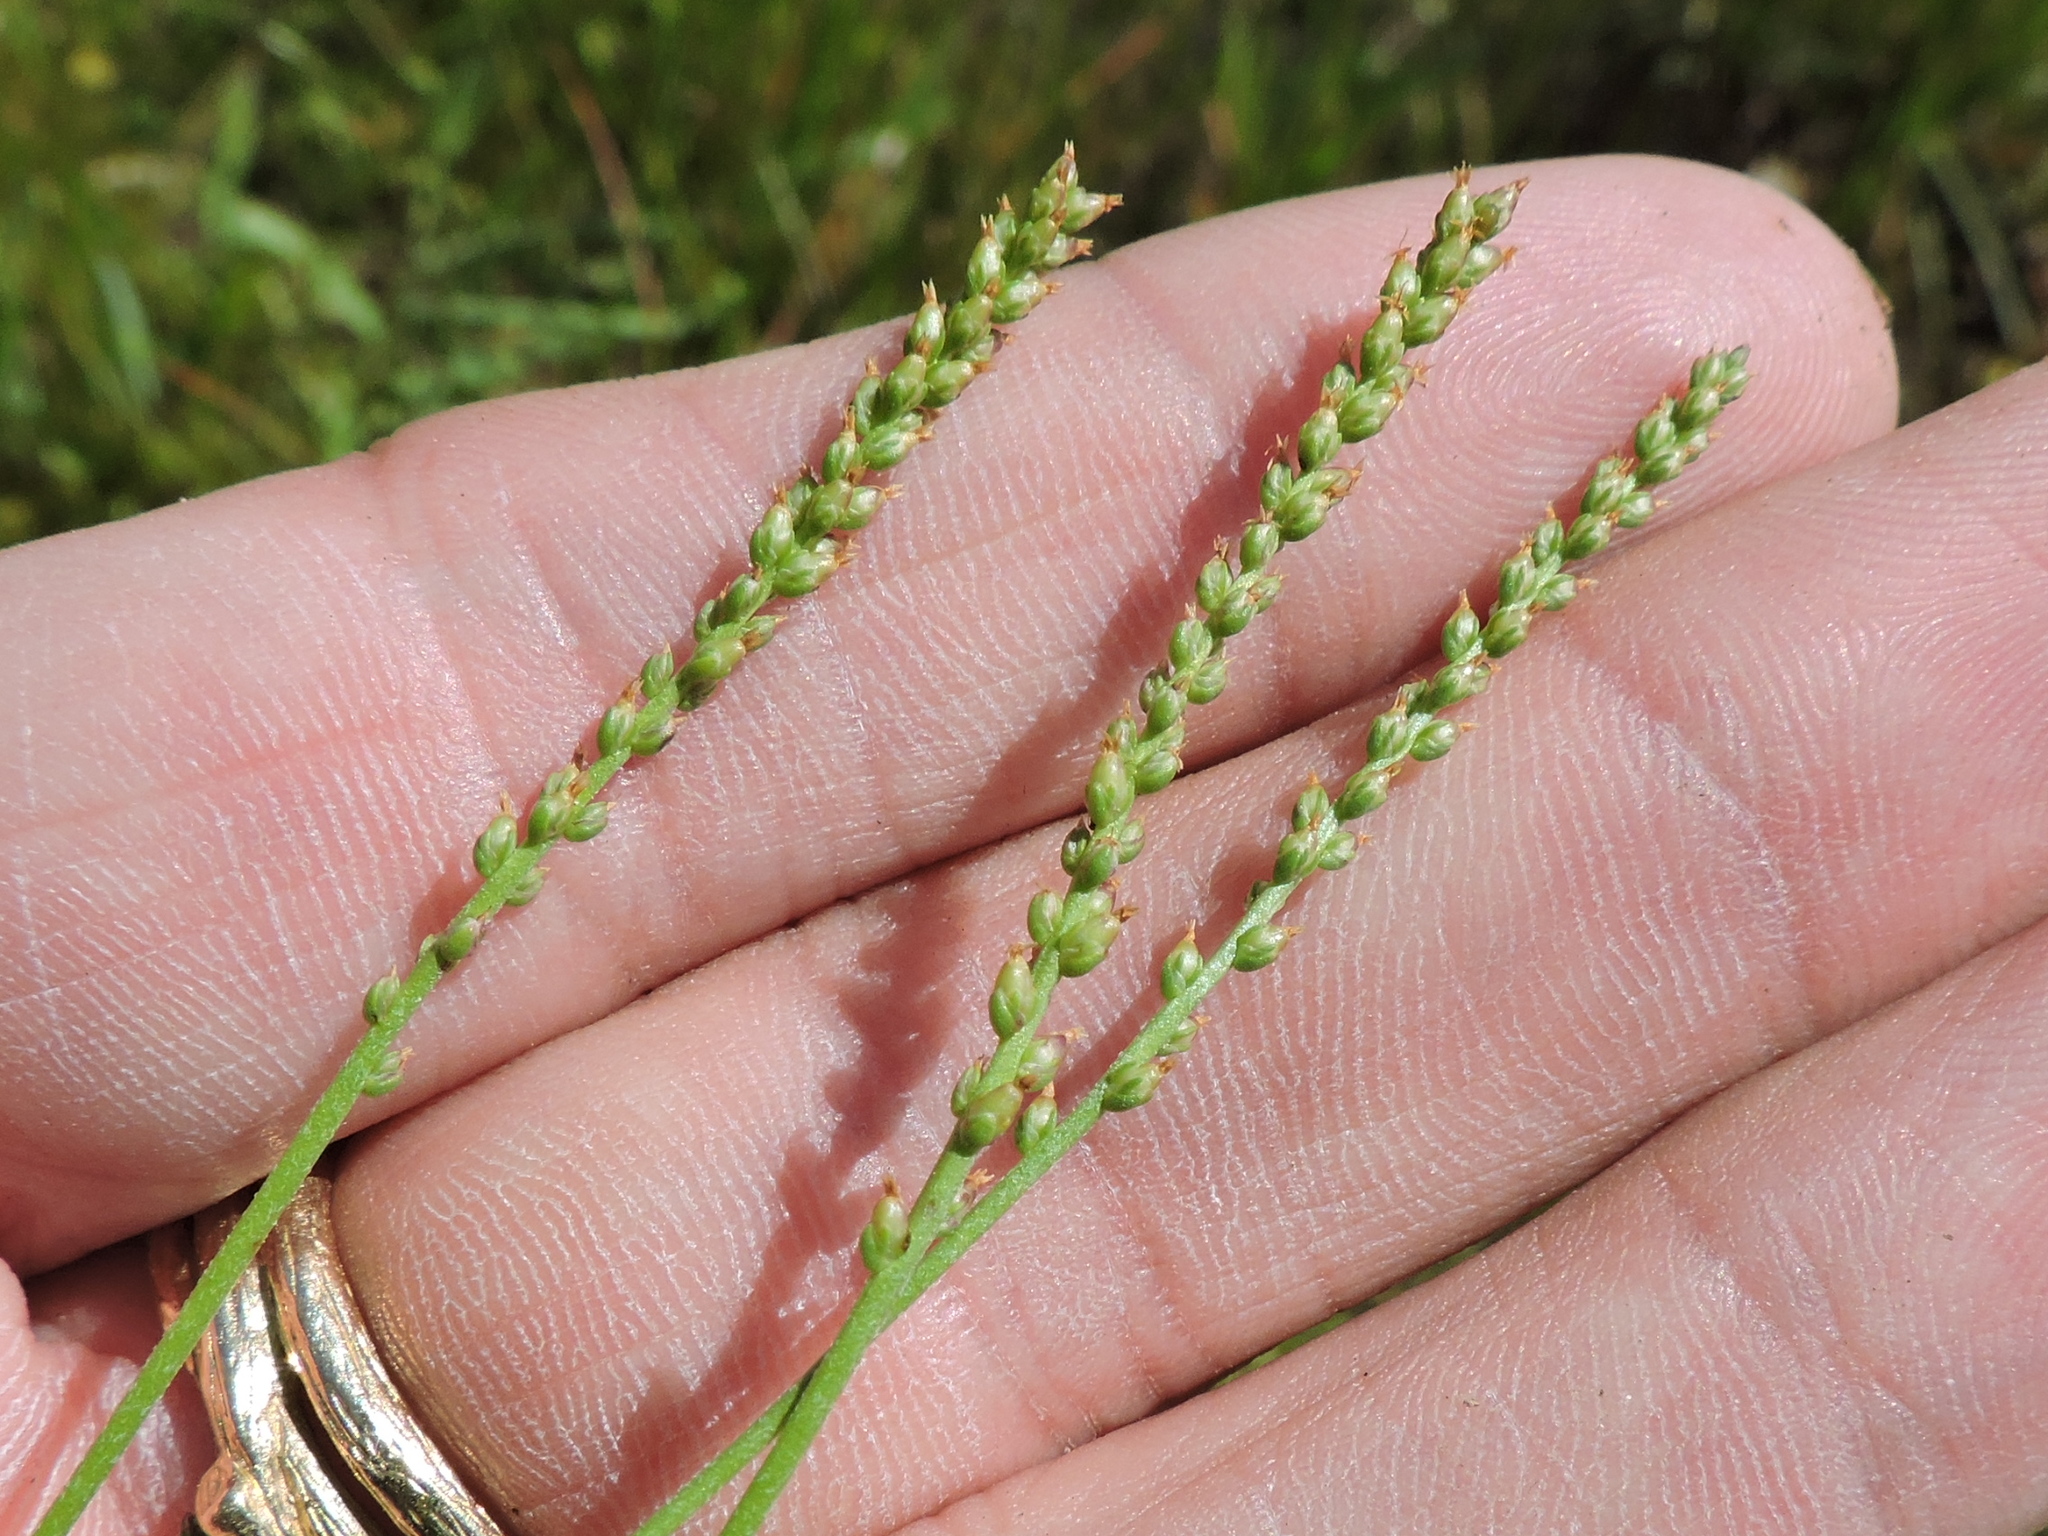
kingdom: Plantae
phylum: Tracheophyta
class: Magnoliopsida
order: Lamiales
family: Plantaginaceae
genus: Plantago
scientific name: Plantago heterophylla
